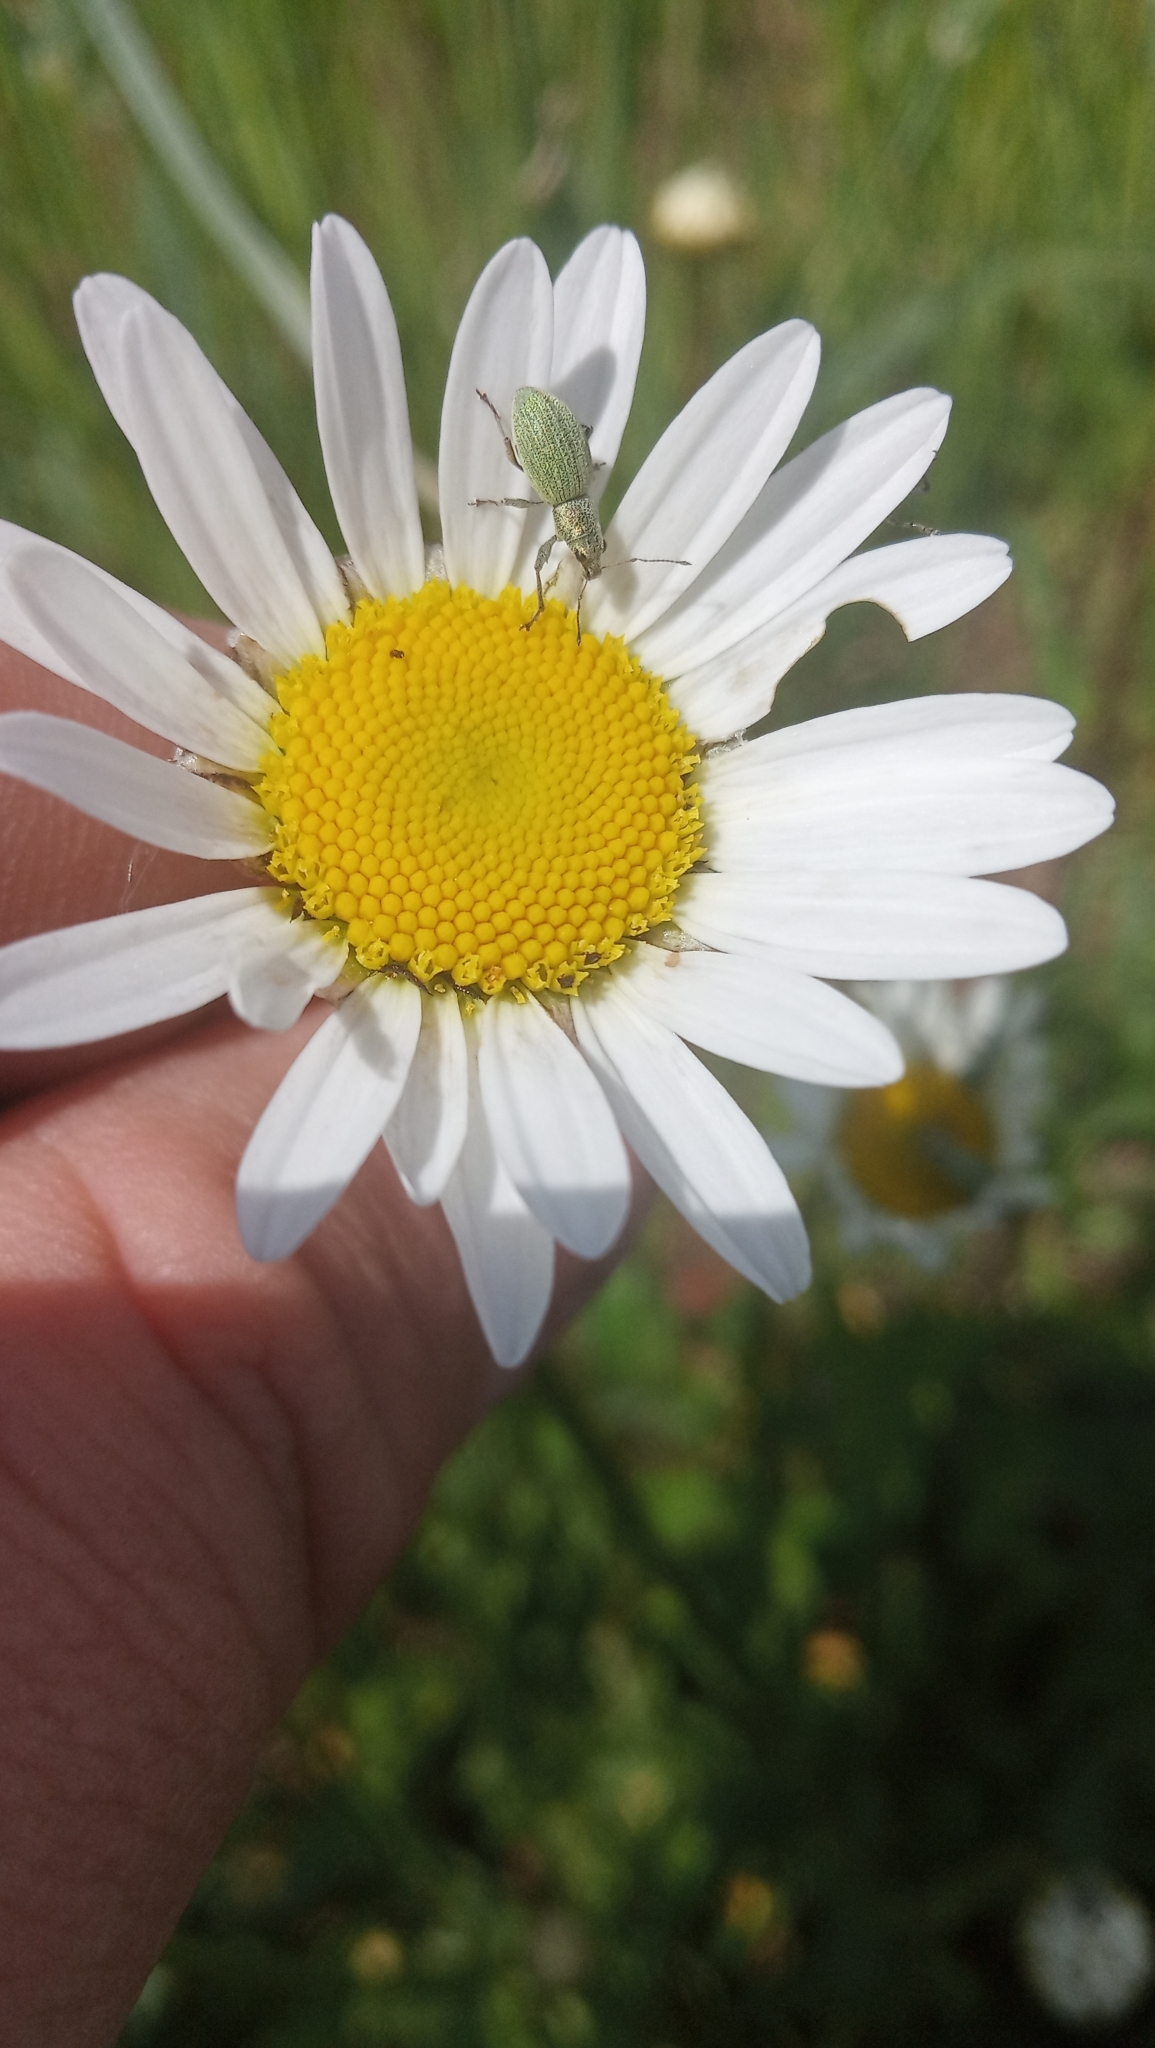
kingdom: Animalia
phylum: Arthropoda
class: Insecta
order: Coleoptera
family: Curculionidae
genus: Eusomus
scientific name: Eusomus ovulum
